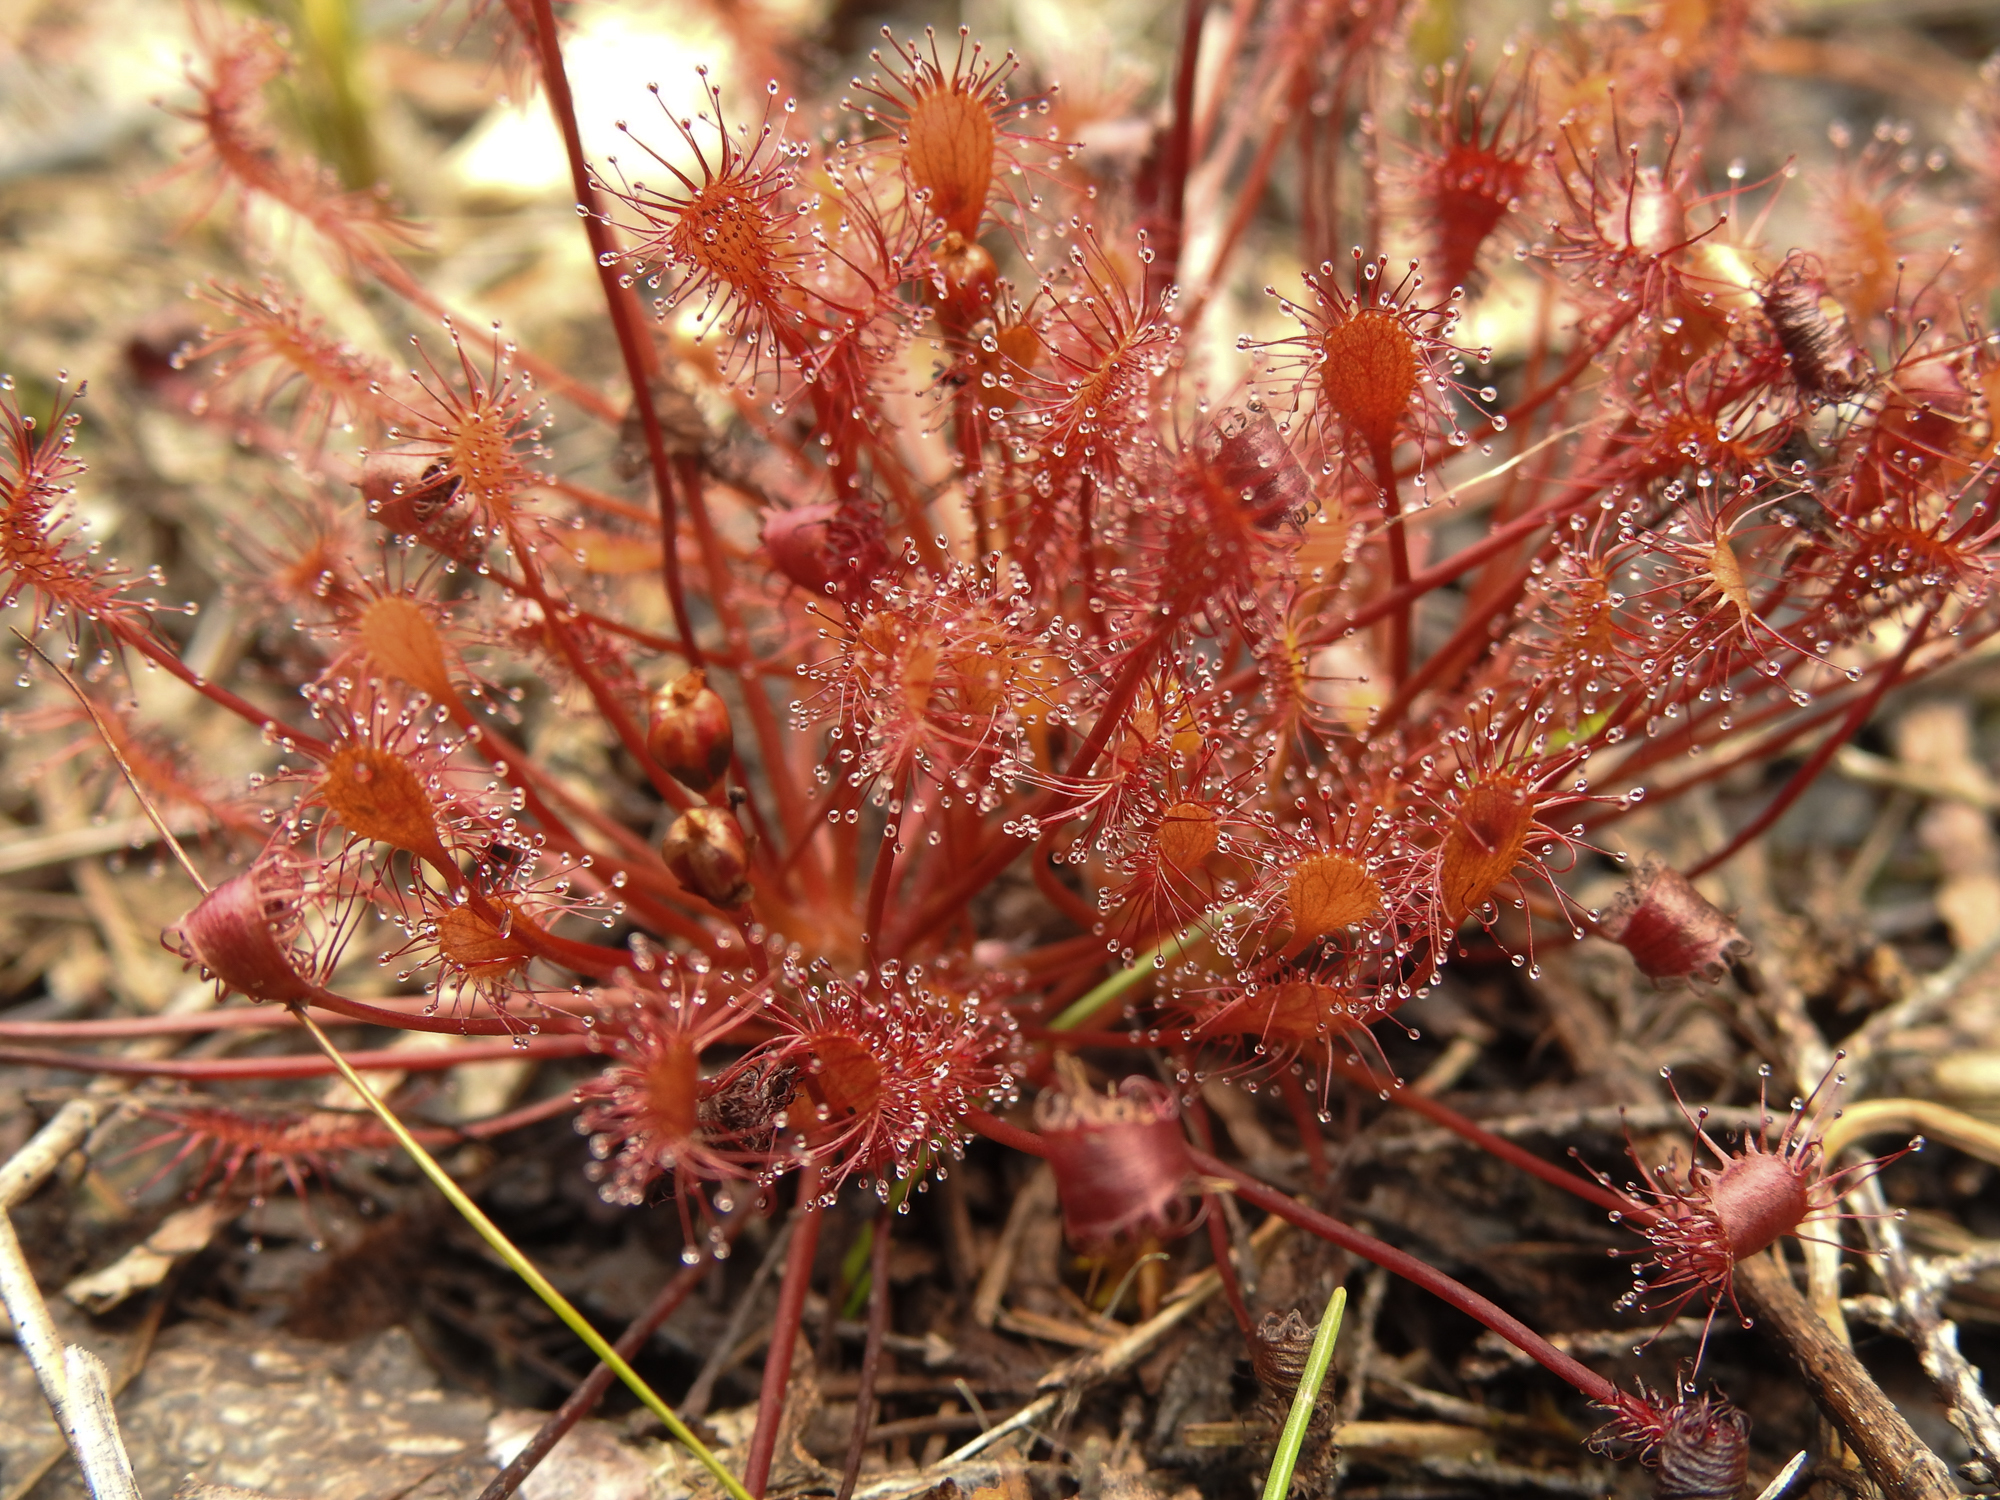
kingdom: Plantae
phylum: Tracheophyta
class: Magnoliopsida
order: Caryophyllales
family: Droseraceae
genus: Drosera
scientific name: Drosera intermedia
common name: Oblong-leaved sundew
